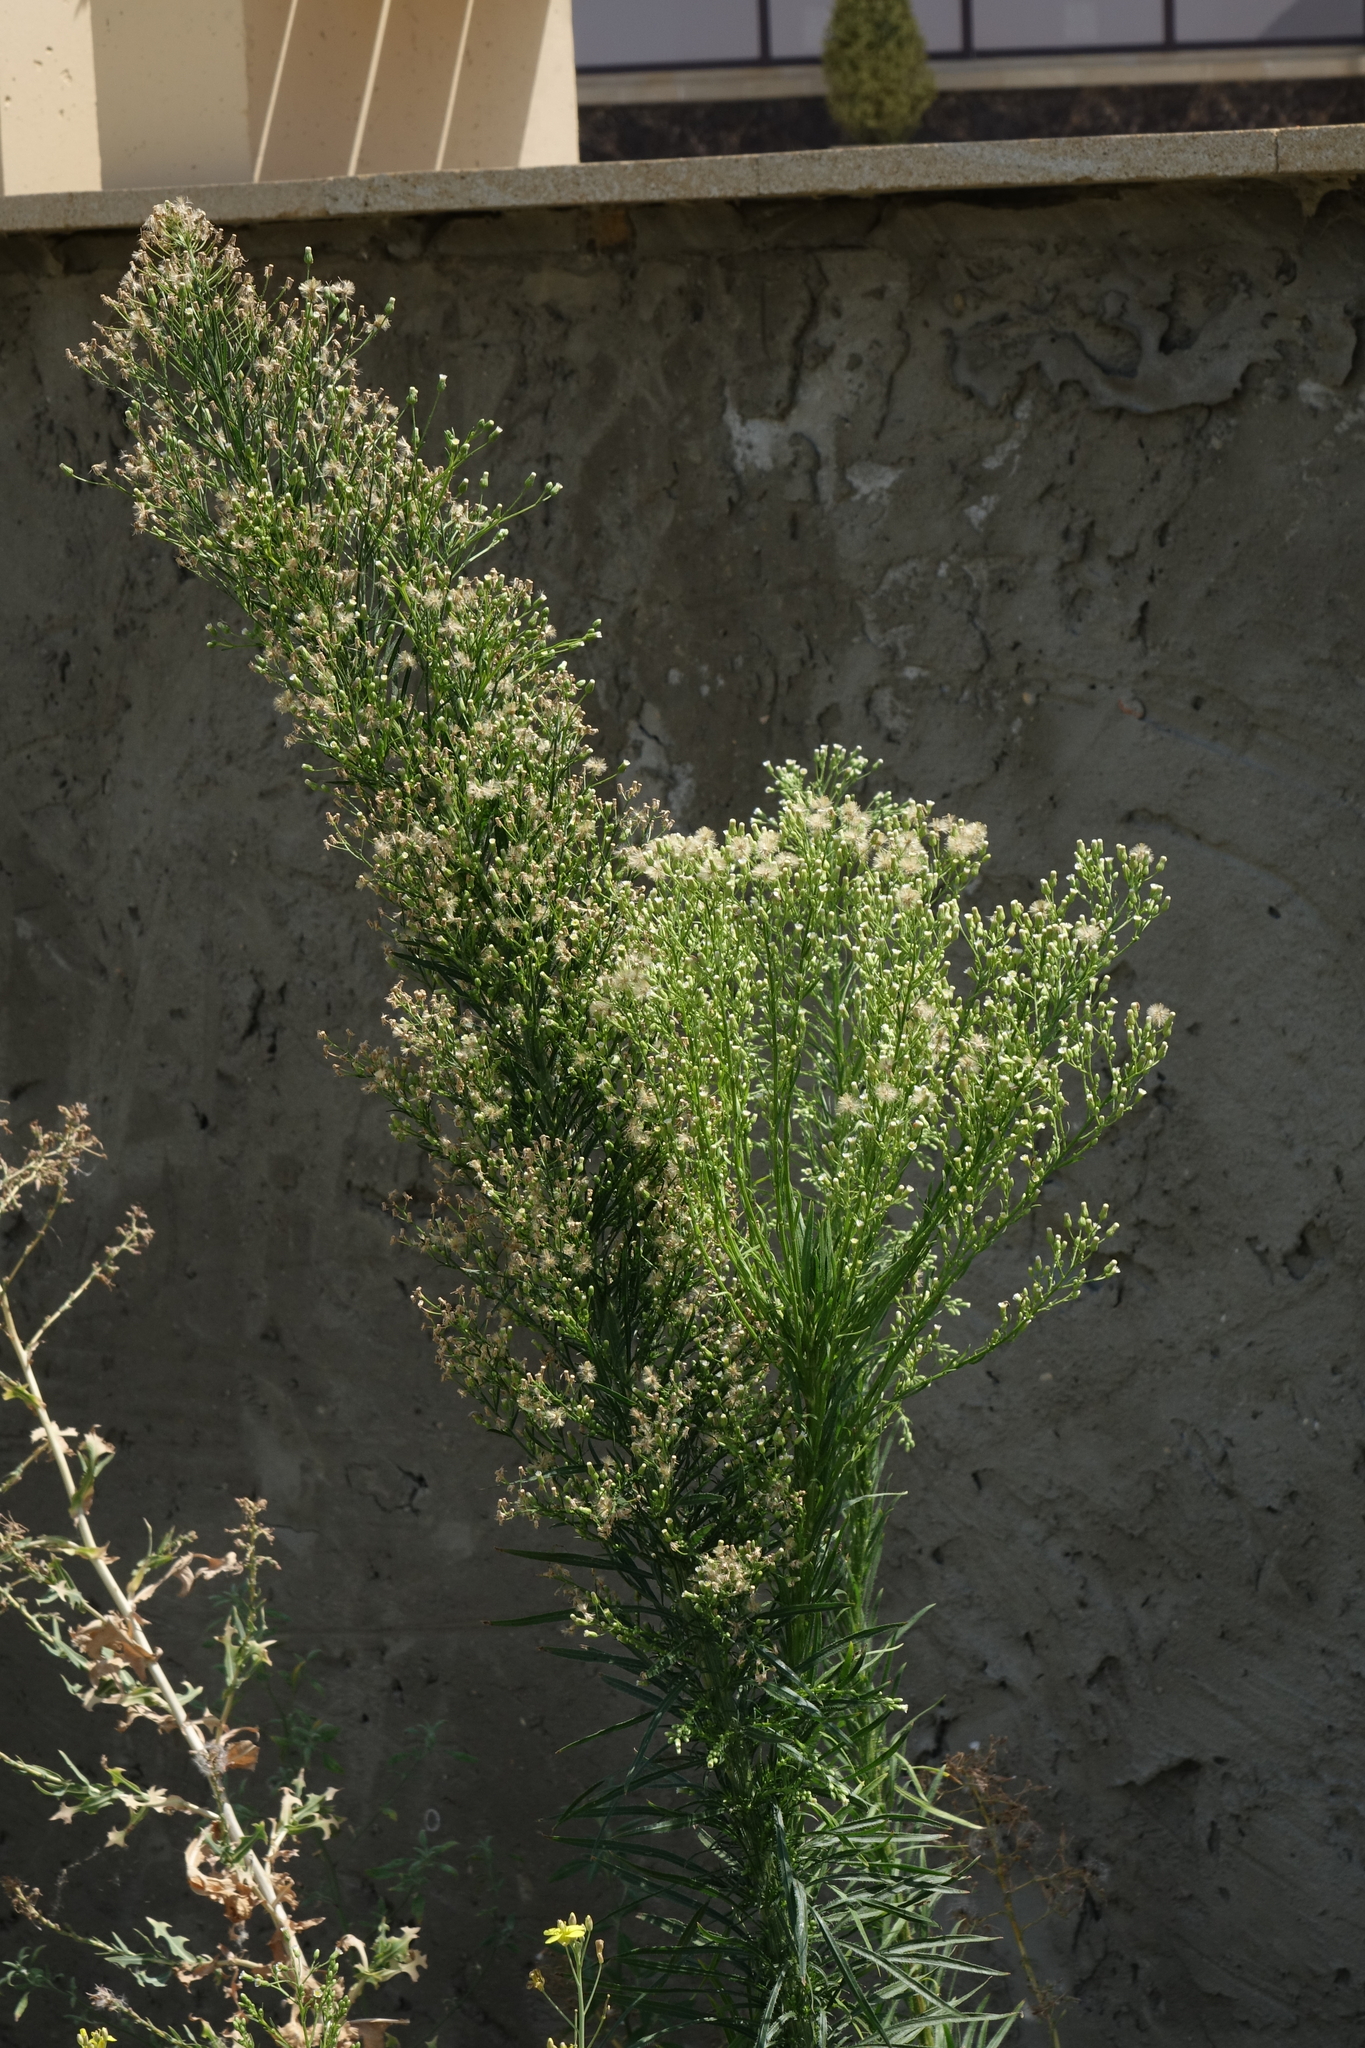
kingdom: Plantae
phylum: Tracheophyta
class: Magnoliopsida
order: Asterales
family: Asteraceae
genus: Erigeron
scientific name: Erigeron canadensis
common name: Canadian fleabane
